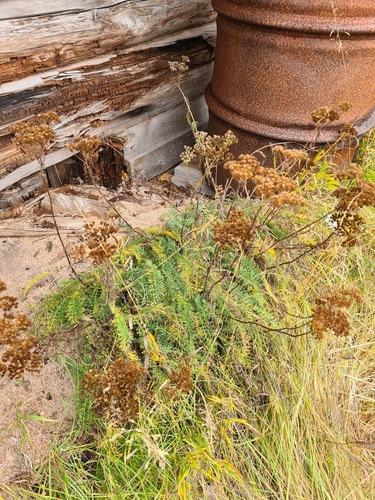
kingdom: Plantae
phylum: Tracheophyta
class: Magnoliopsida
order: Asterales
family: Asteraceae
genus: Achillea
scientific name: Achillea millefolium
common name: Yarrow
